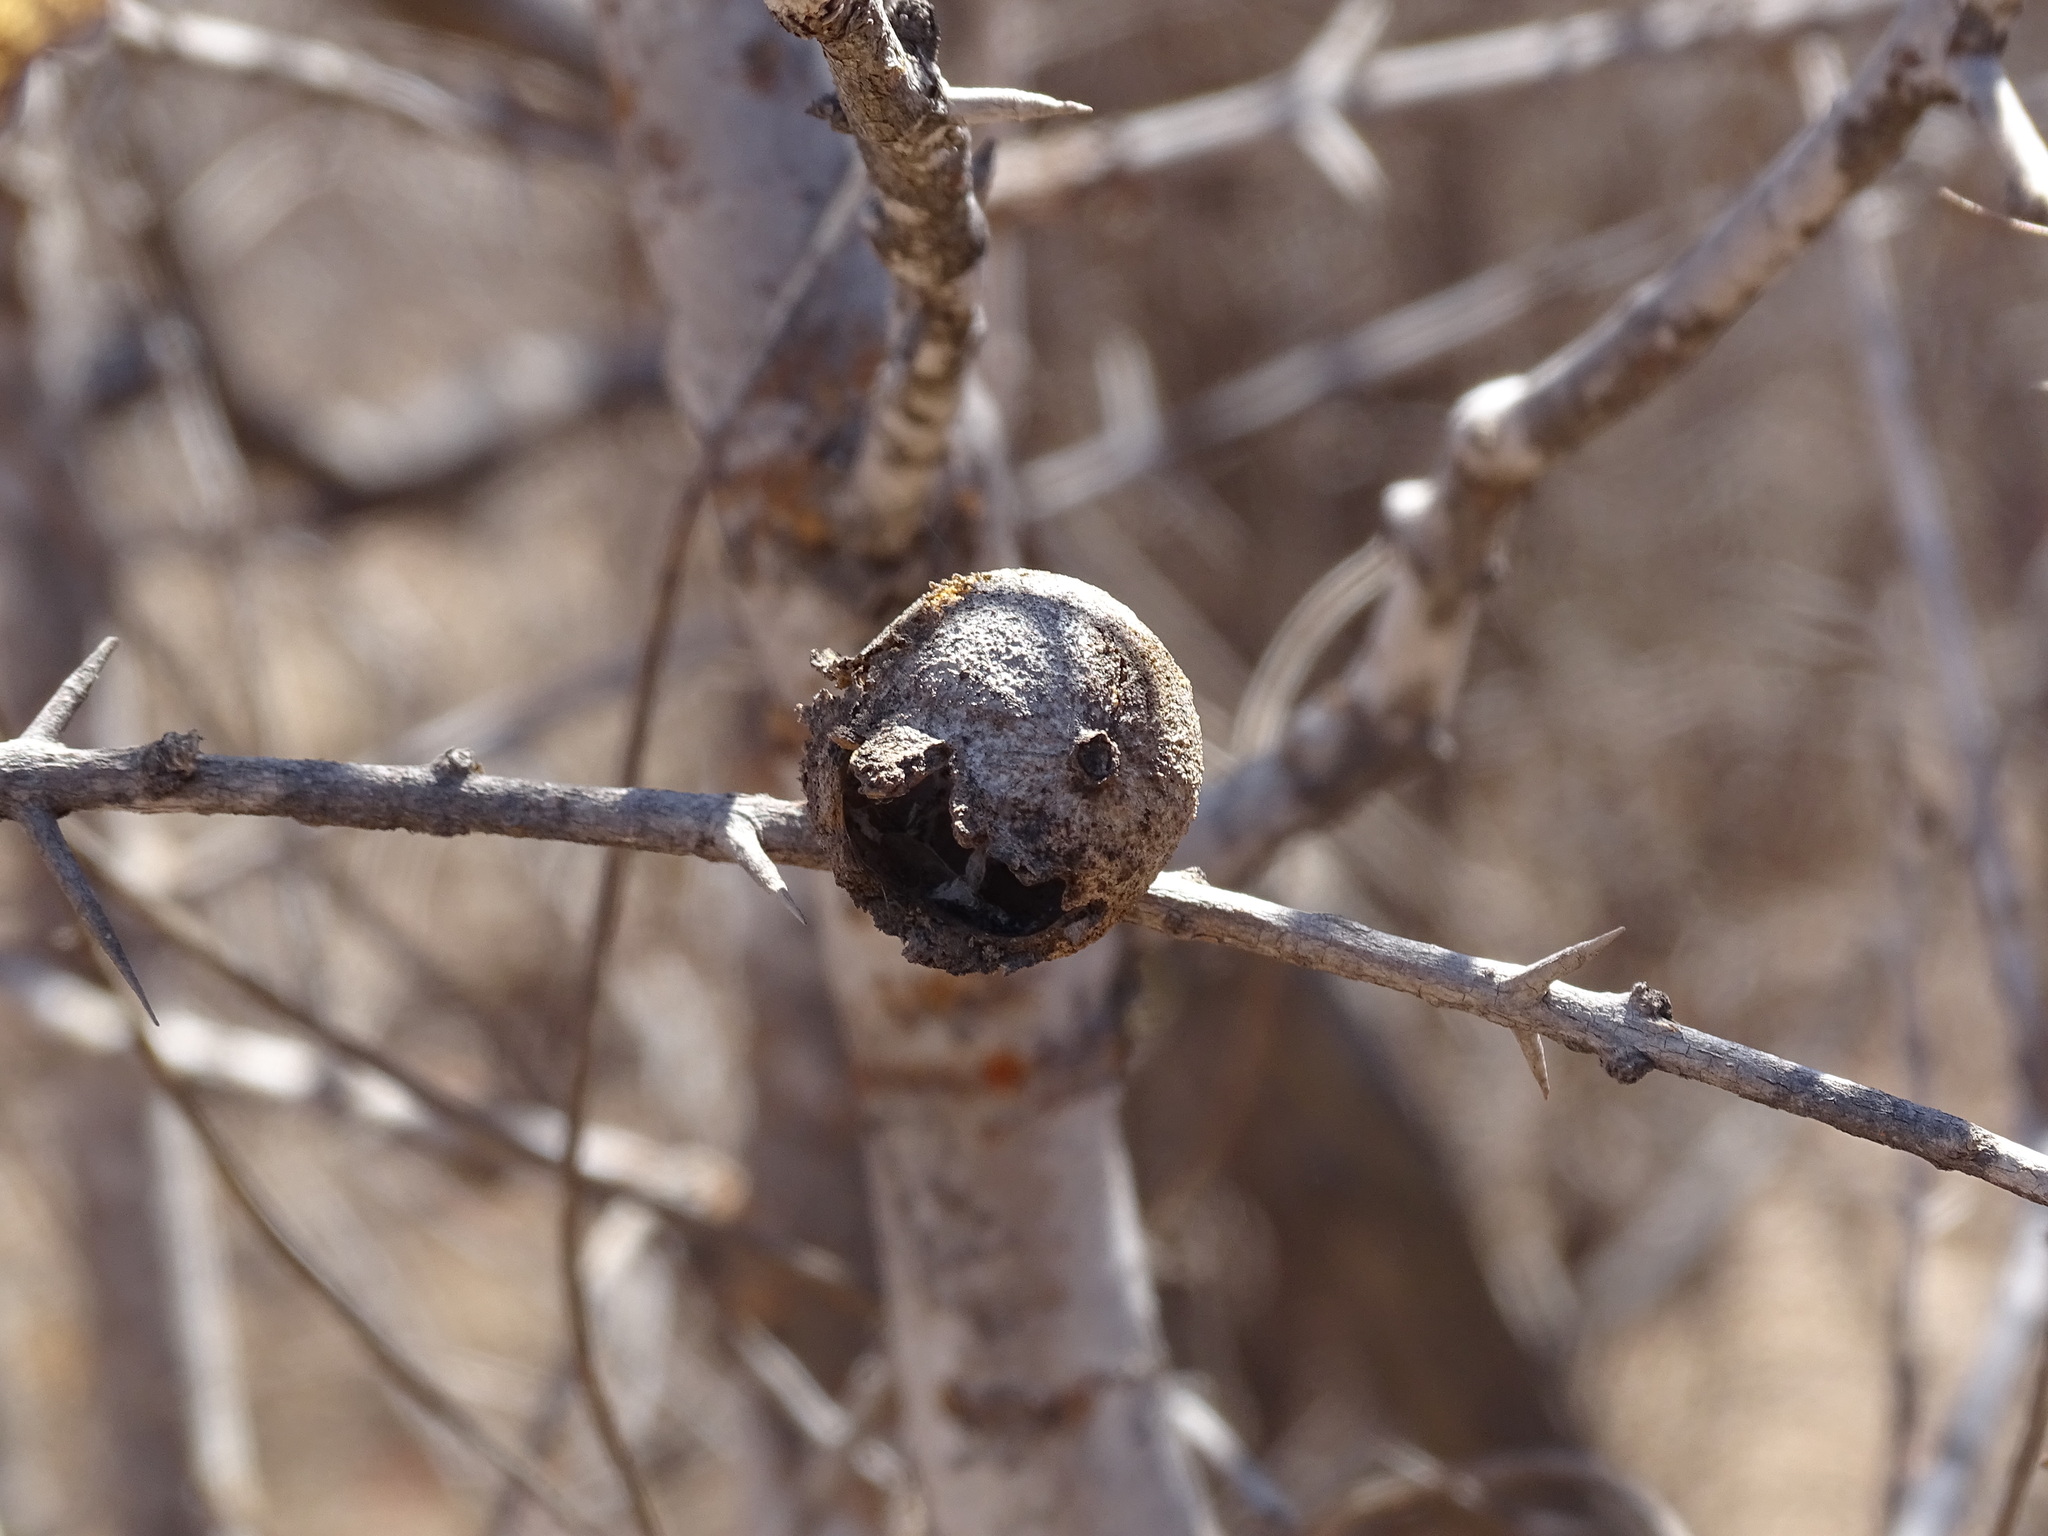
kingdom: Plantae
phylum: Tracheophyta
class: Magnoliopsida
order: Gentianales
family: Rubiaceae
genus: Randia
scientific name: Randia thurberi
